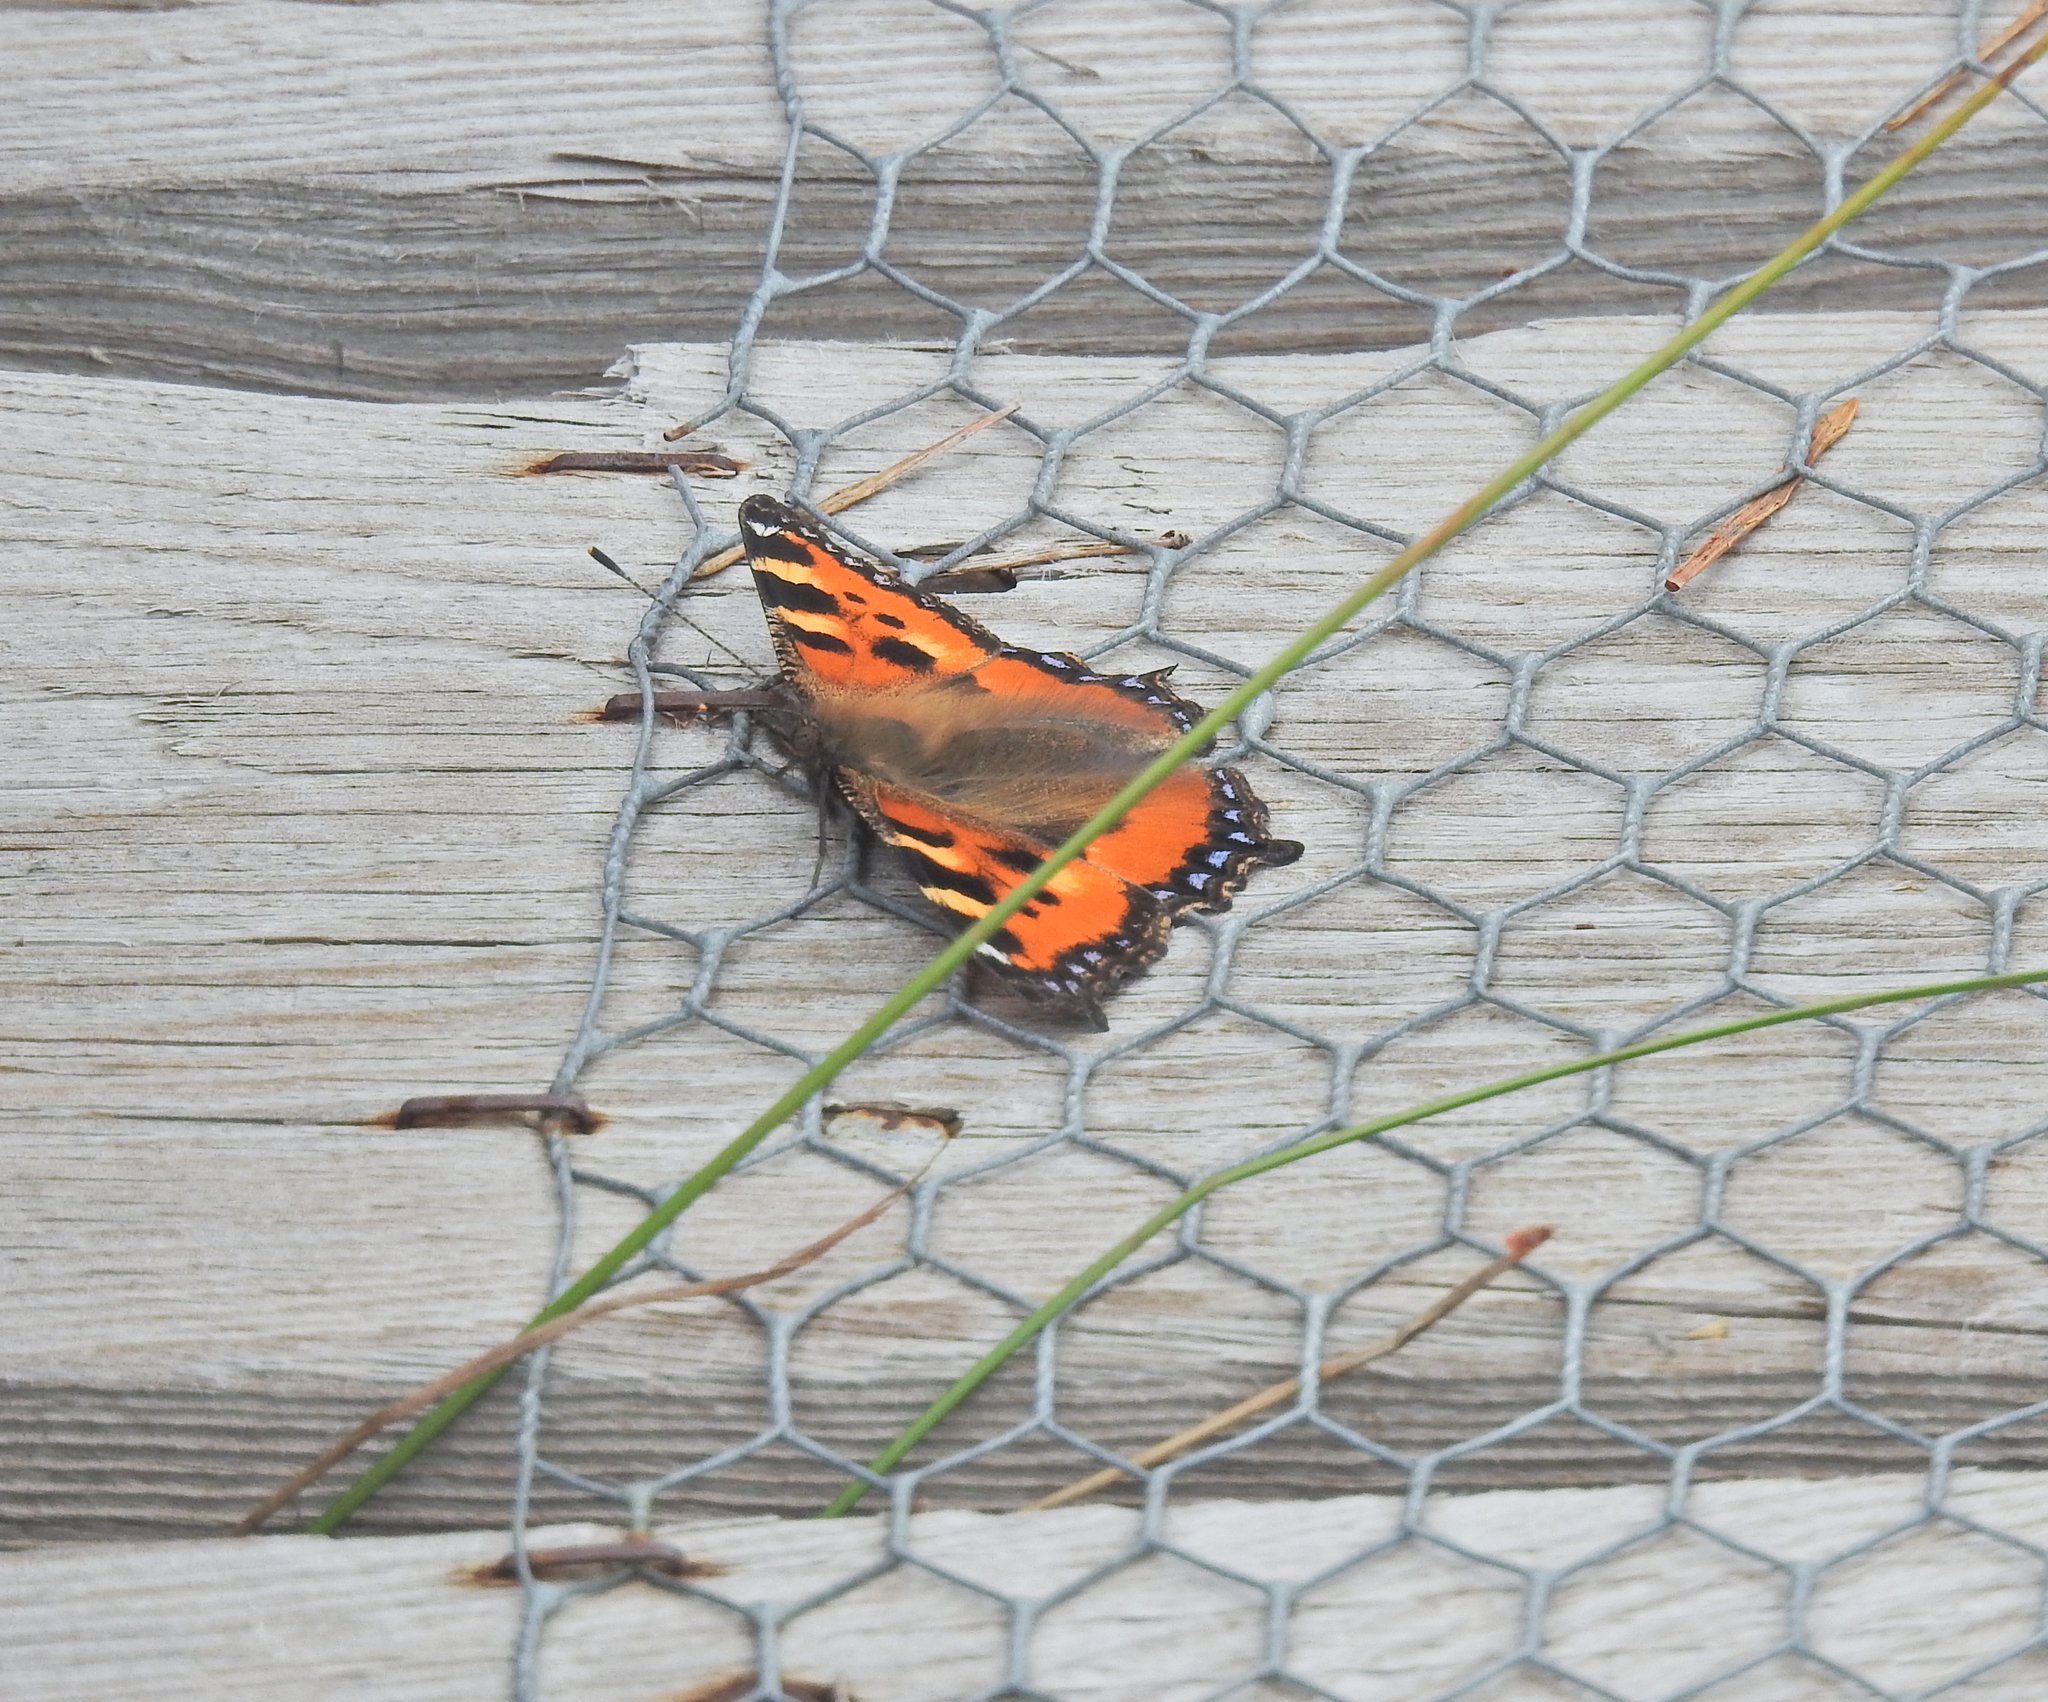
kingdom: Animalia
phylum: Arthropoda
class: Insecta
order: Lepidoptera
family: Nymphalidae
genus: Aglais
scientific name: Aglais urticae
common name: Small tortoiseshell
